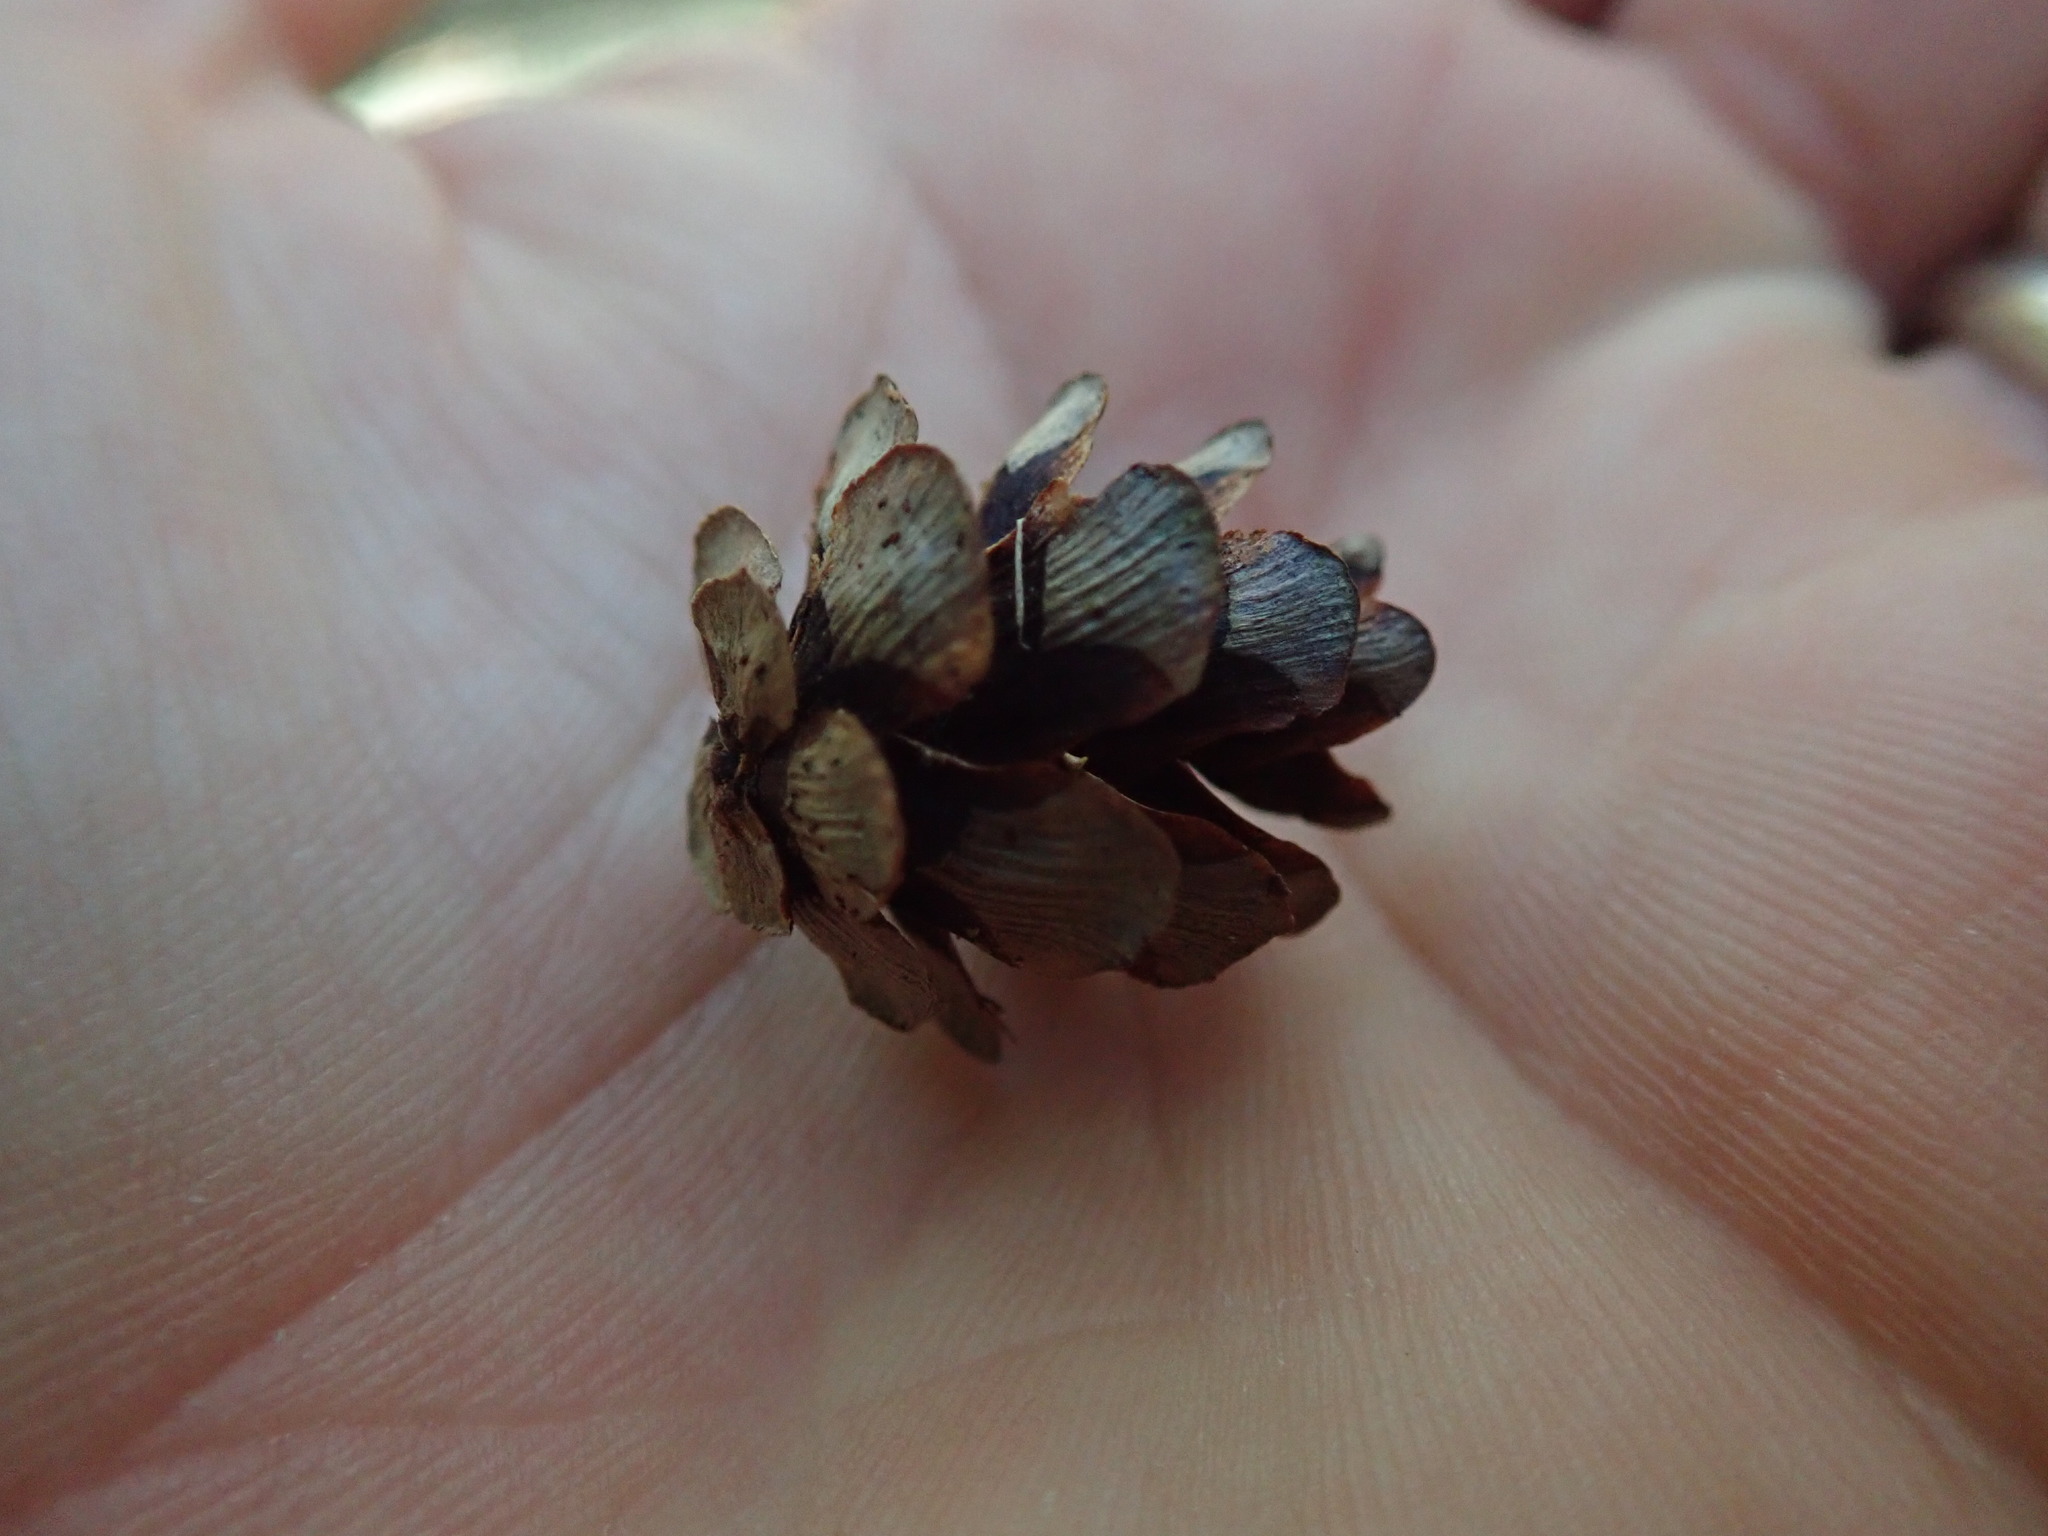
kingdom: Plantae
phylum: Tracheophyta
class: Pinopsida
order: Pinales
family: Pinaceae
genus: Tsuga
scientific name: Tsuga heterophylla
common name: Western hemlock
